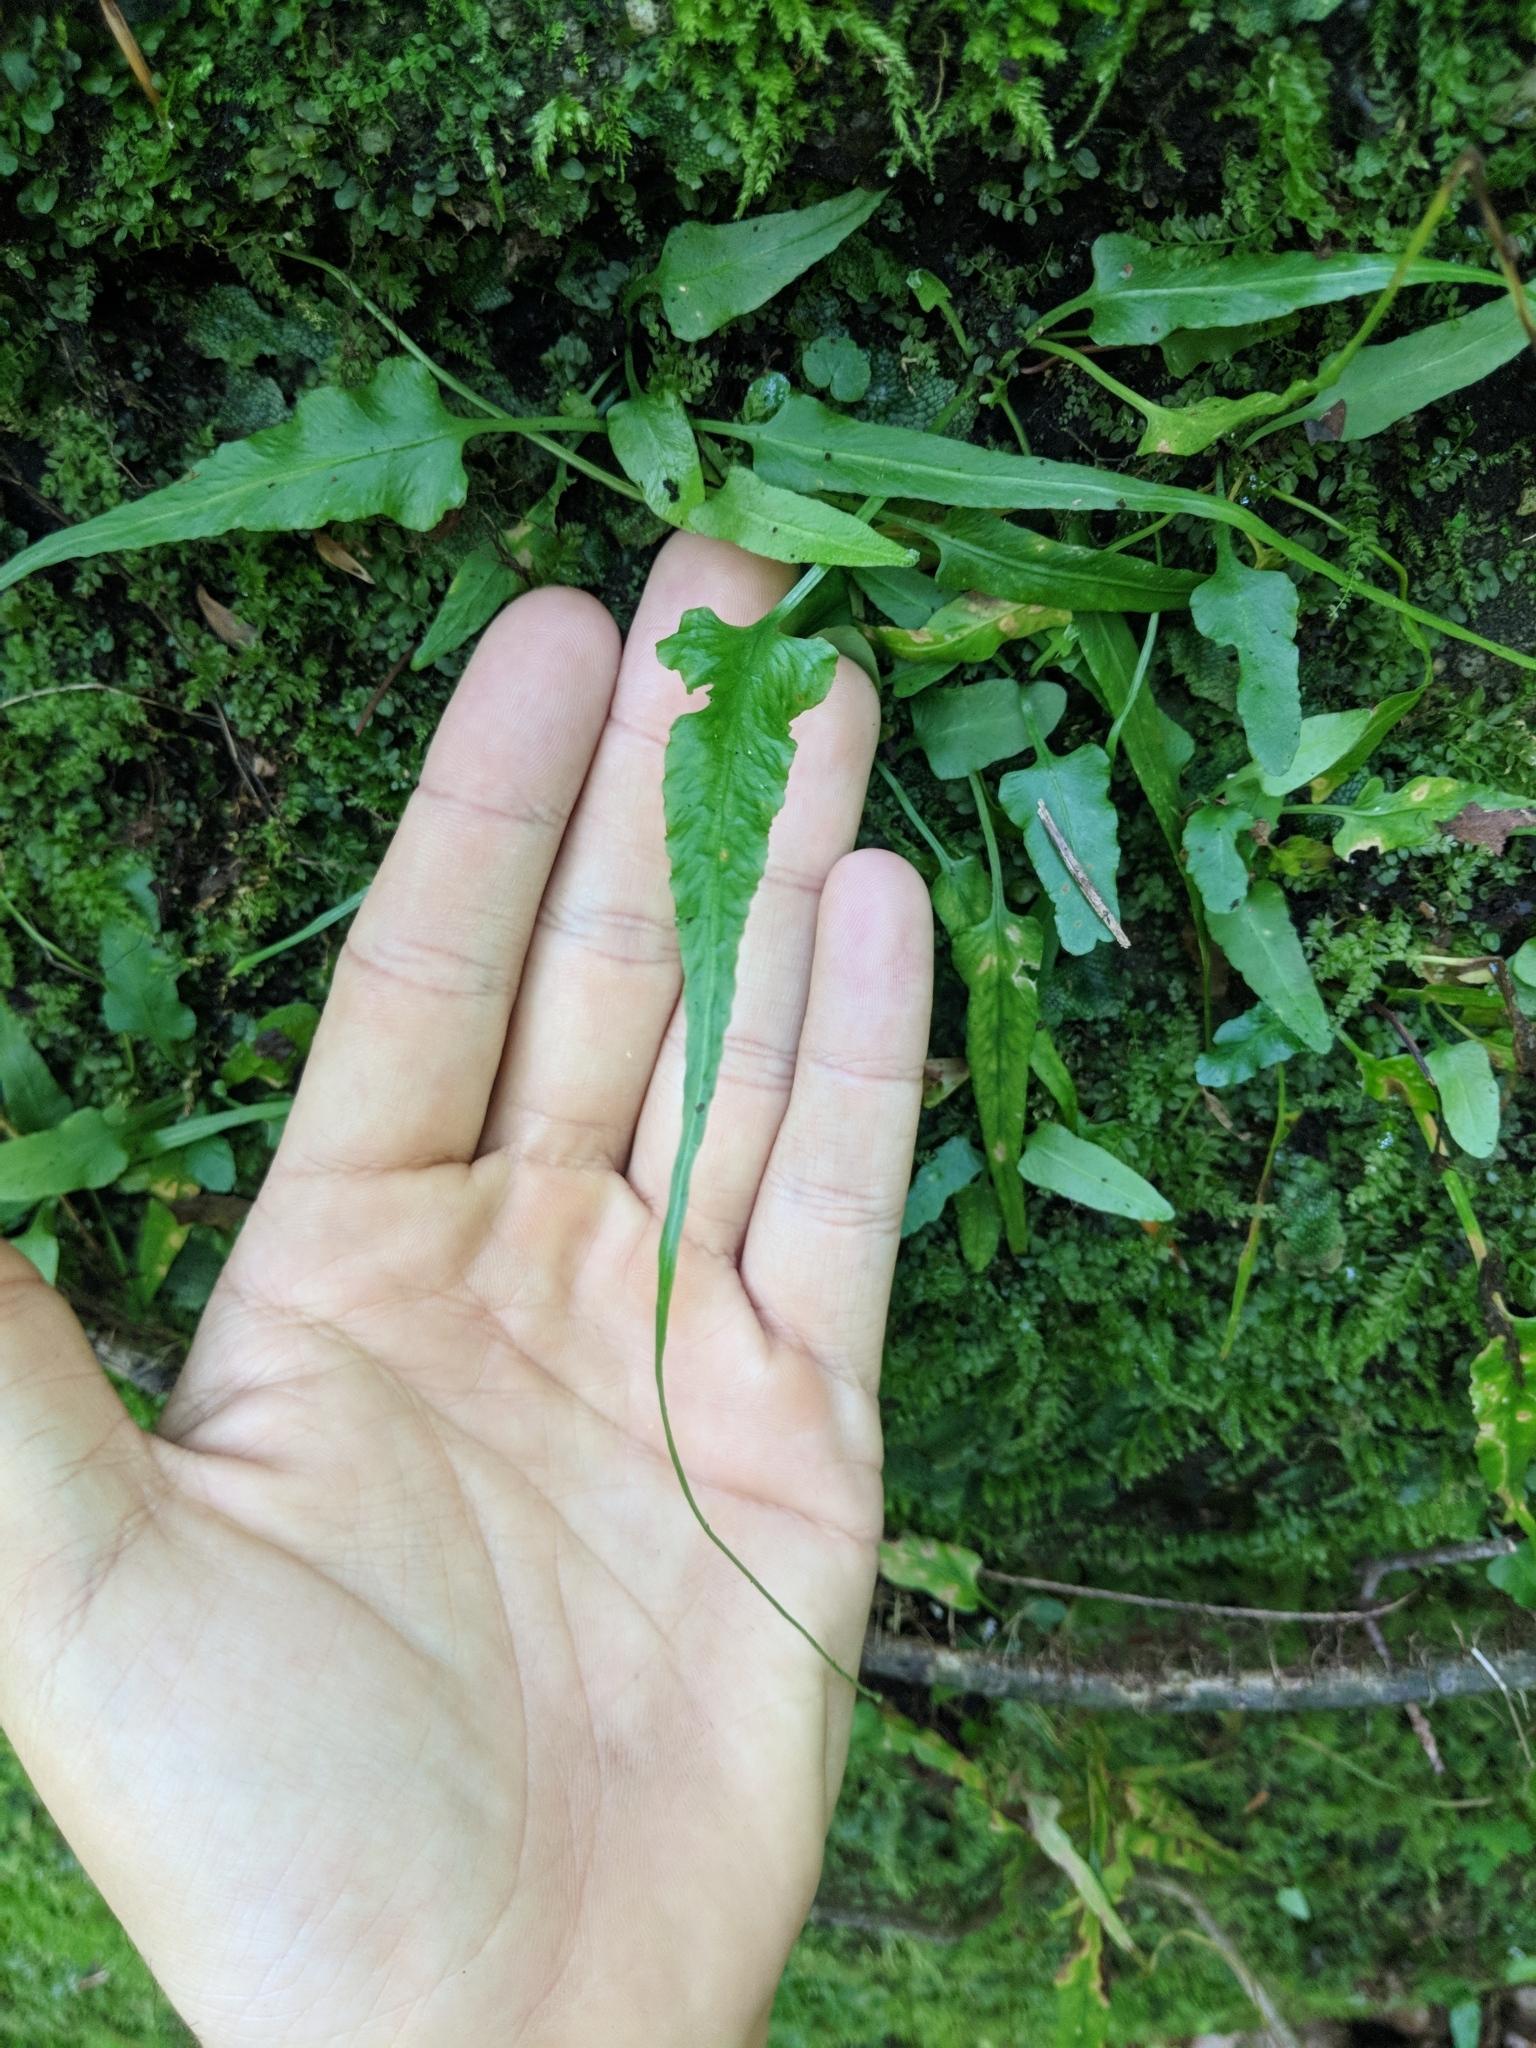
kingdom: Plantae
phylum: Tracheophyta
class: Polypodiopsida
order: Polypodiales
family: Aspleniaceae
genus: Asplenium
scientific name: Asplenium rhizophyllum
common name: Walking fern
